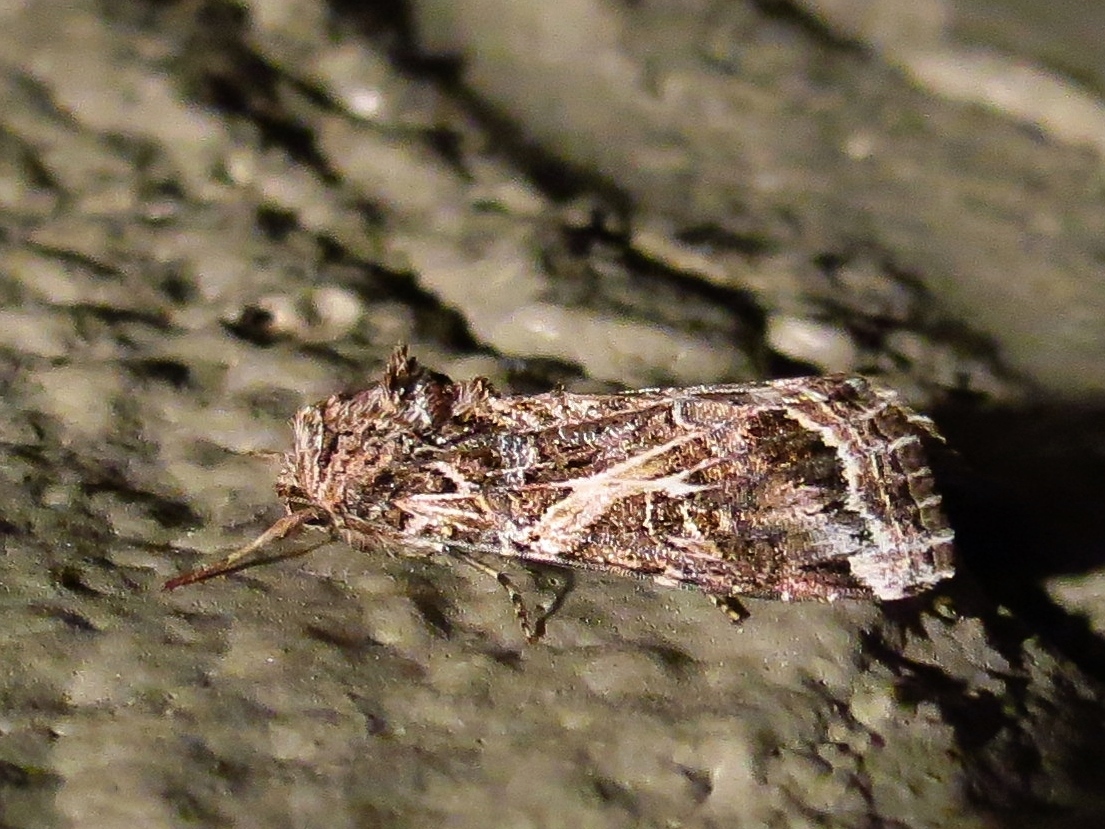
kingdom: Animalia
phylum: Arthropoda
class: Insecta
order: Lepidoptera
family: Noctuidae
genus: Spodoptera
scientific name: Spodoptera ornithogalli
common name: Yellow-striped armyworm
